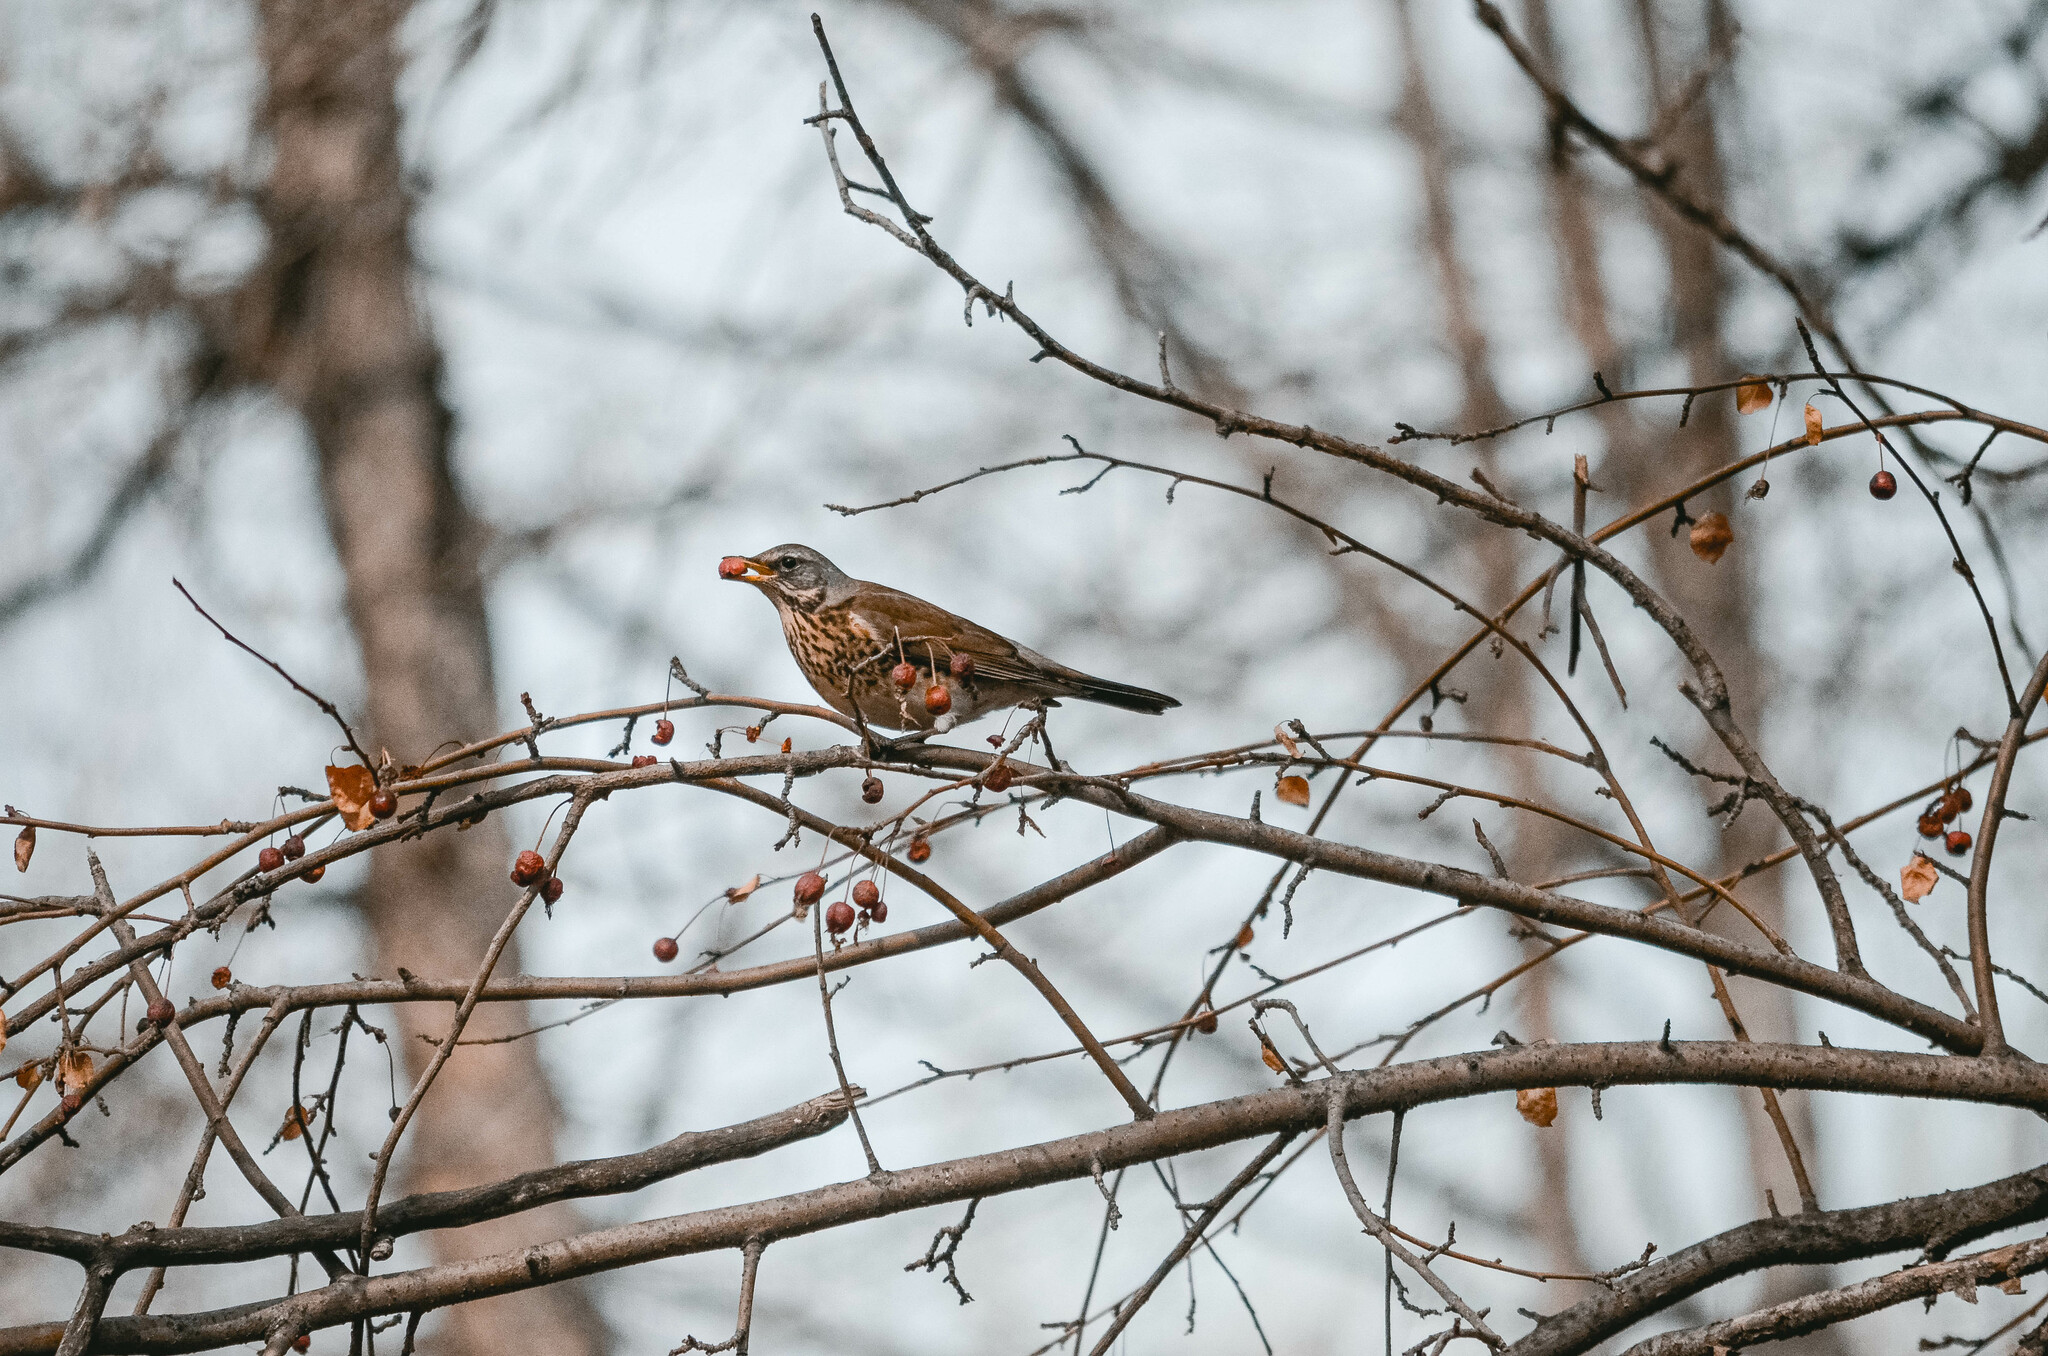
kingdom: Animalia
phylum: Chordata
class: Aves
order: Passeriformes
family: Turdidae
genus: Turdus
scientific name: Turdus pilaris
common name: Fieldfare
